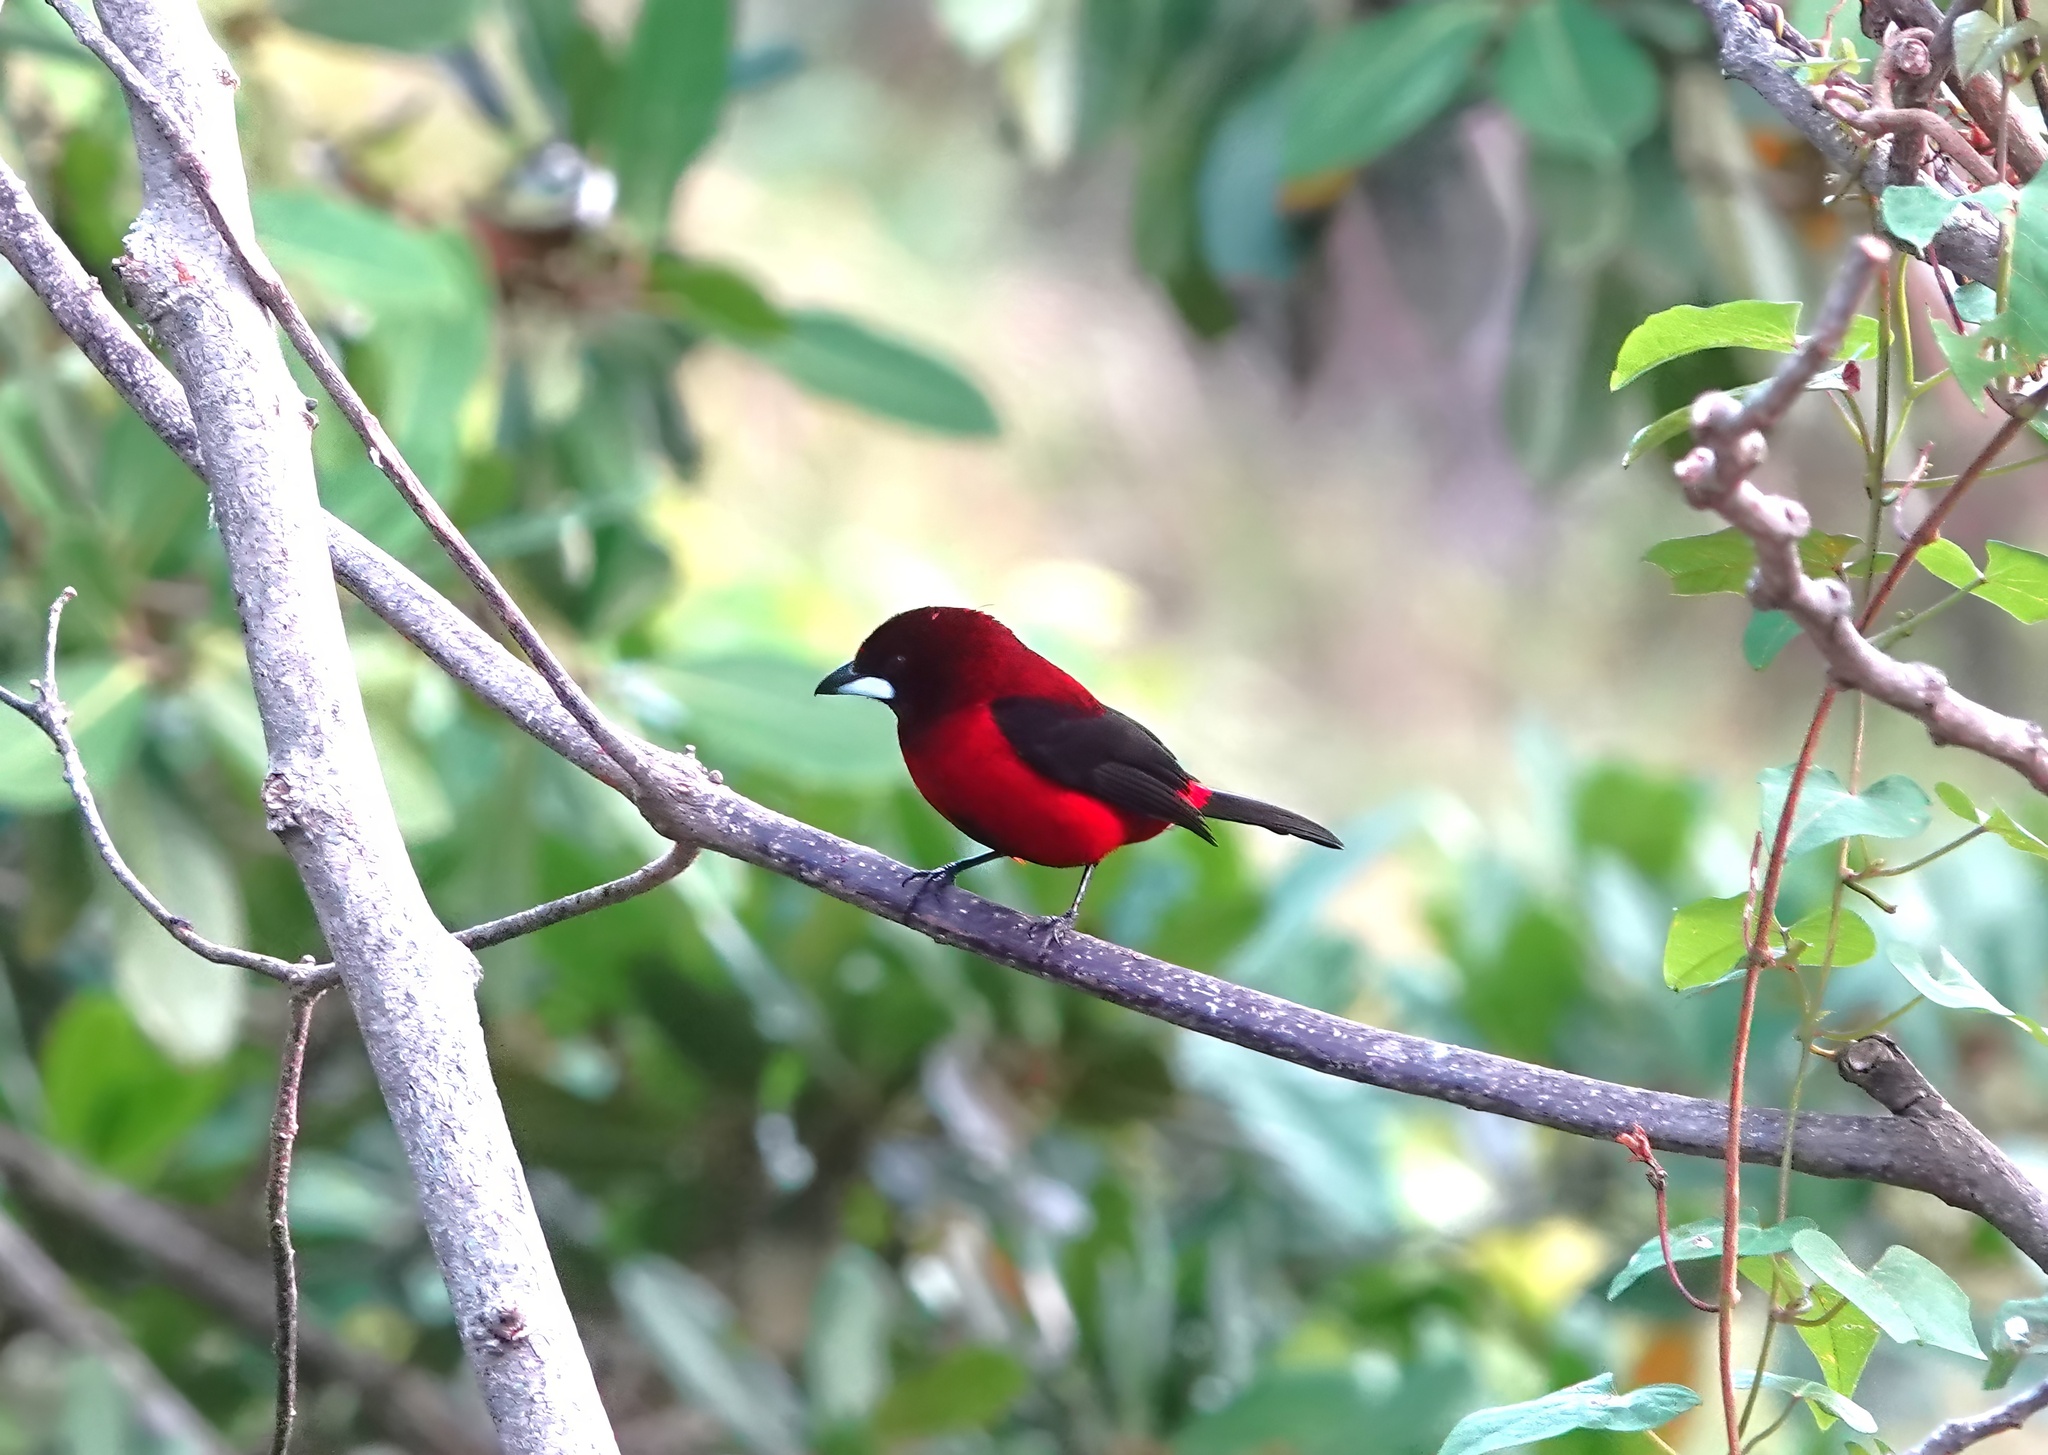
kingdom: Animalia
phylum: Chordata
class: Aves
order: Passeriformes
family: Thraupidae
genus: Ramphocelus
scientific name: Ramphocelus dimidiatus
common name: Crimson-backed tanager
